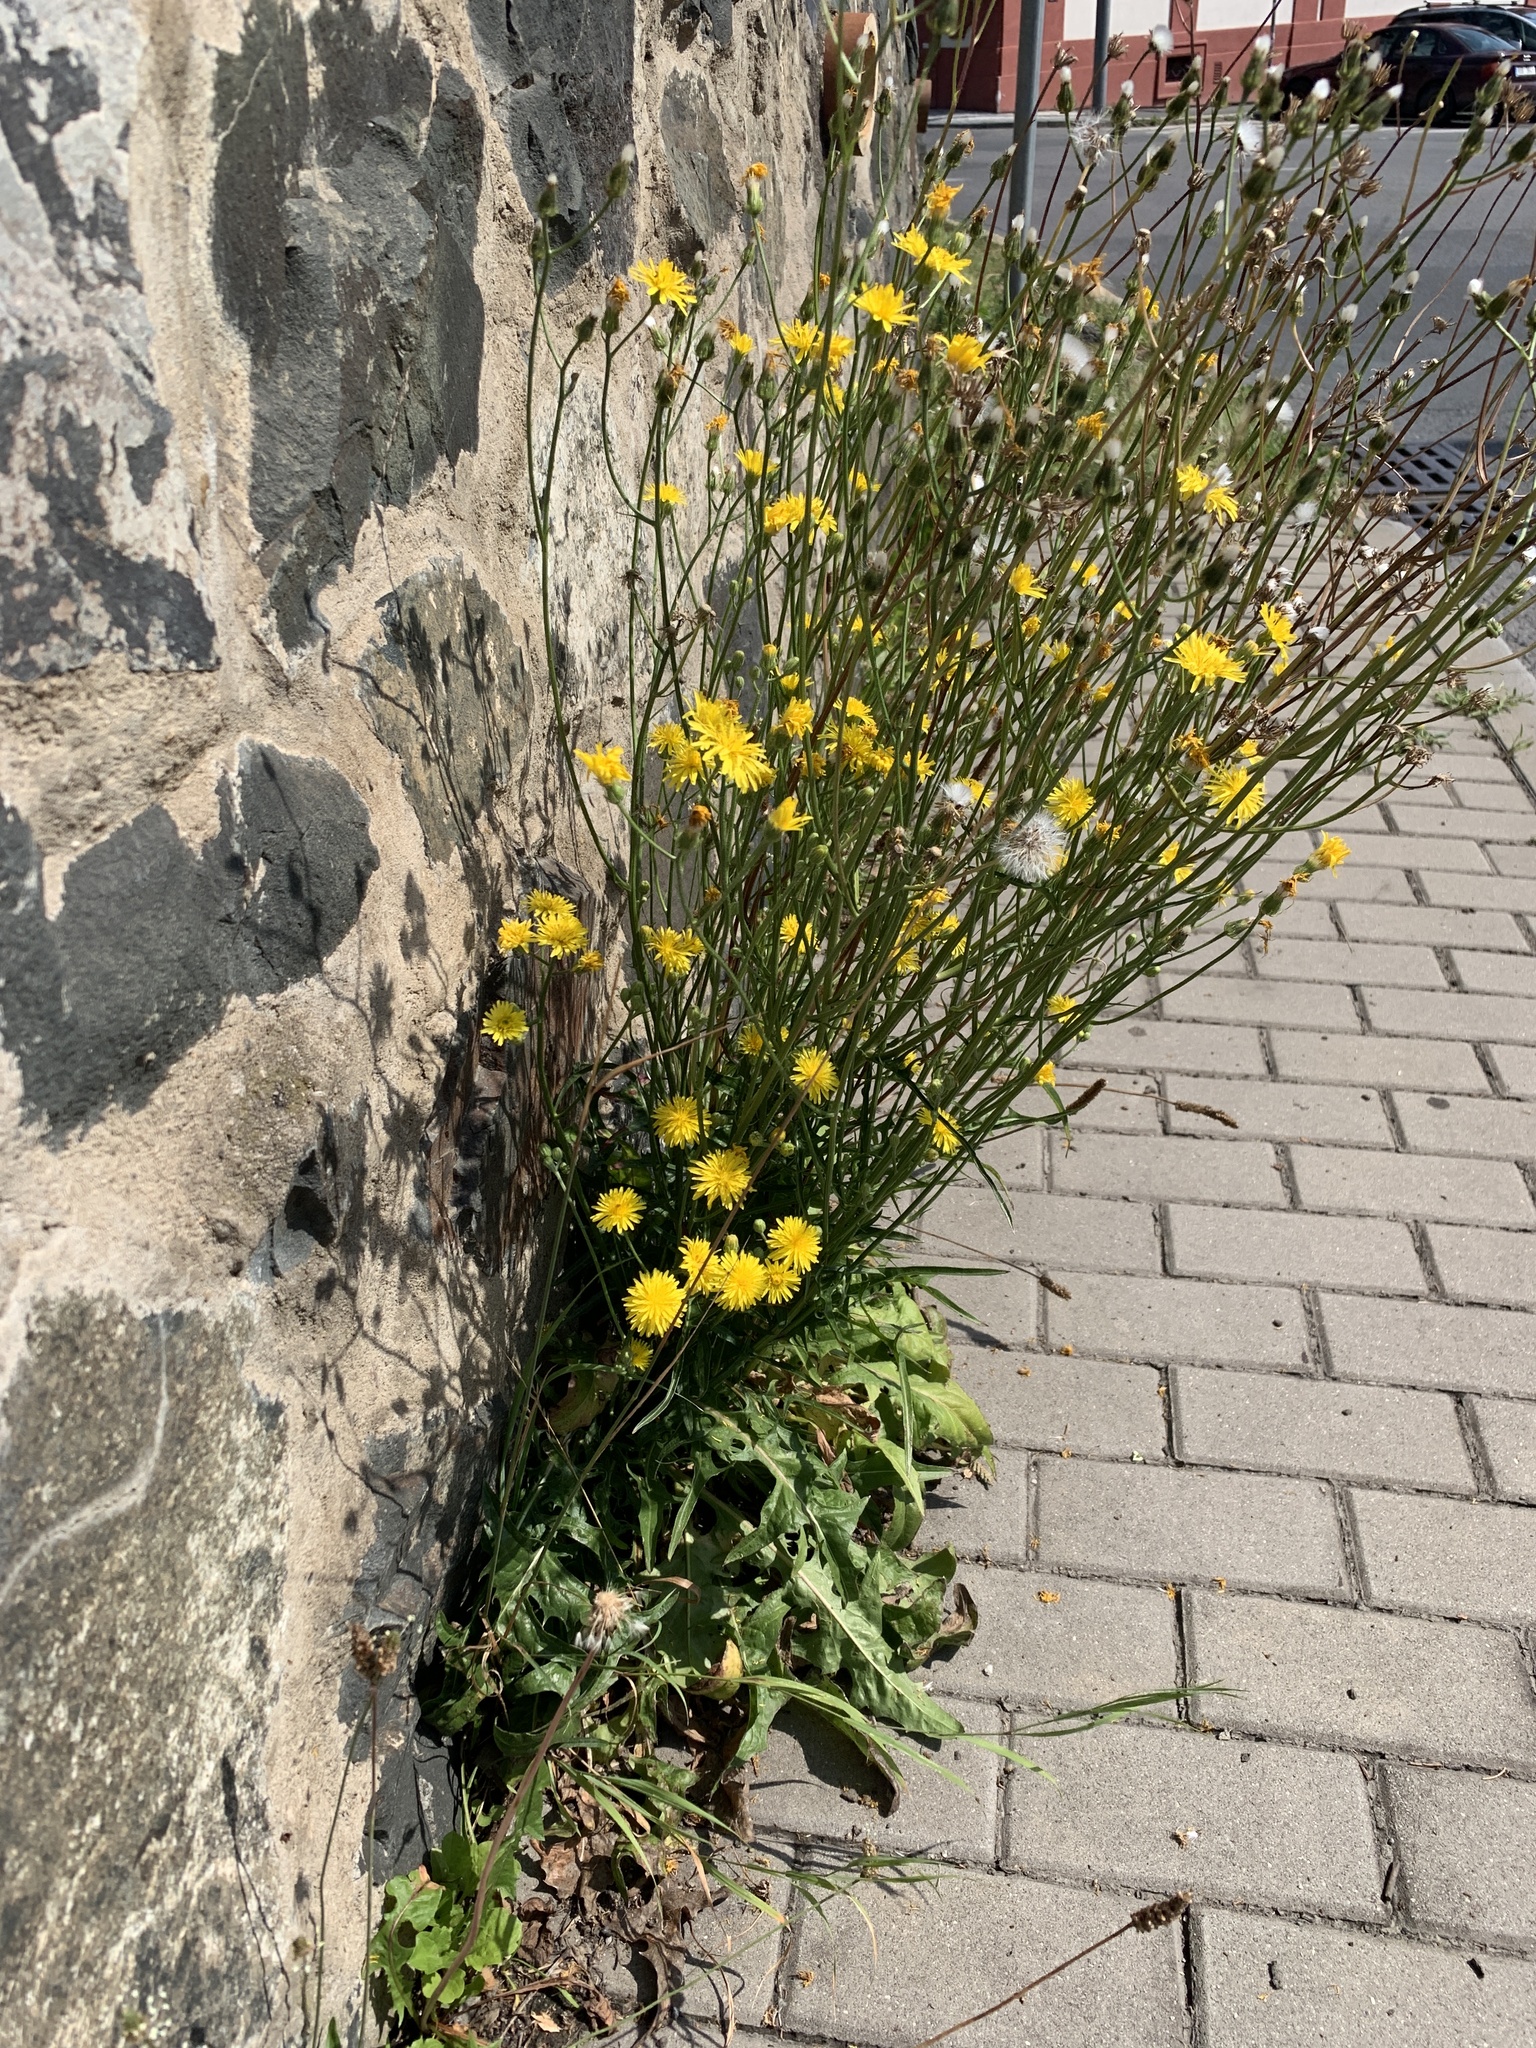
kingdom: Plantae
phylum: Tracheophyta
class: Magnoliopsida
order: Asterales
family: Asteraceae
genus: Crepis
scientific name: Crepis biennis
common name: Rough hawk's-beard
